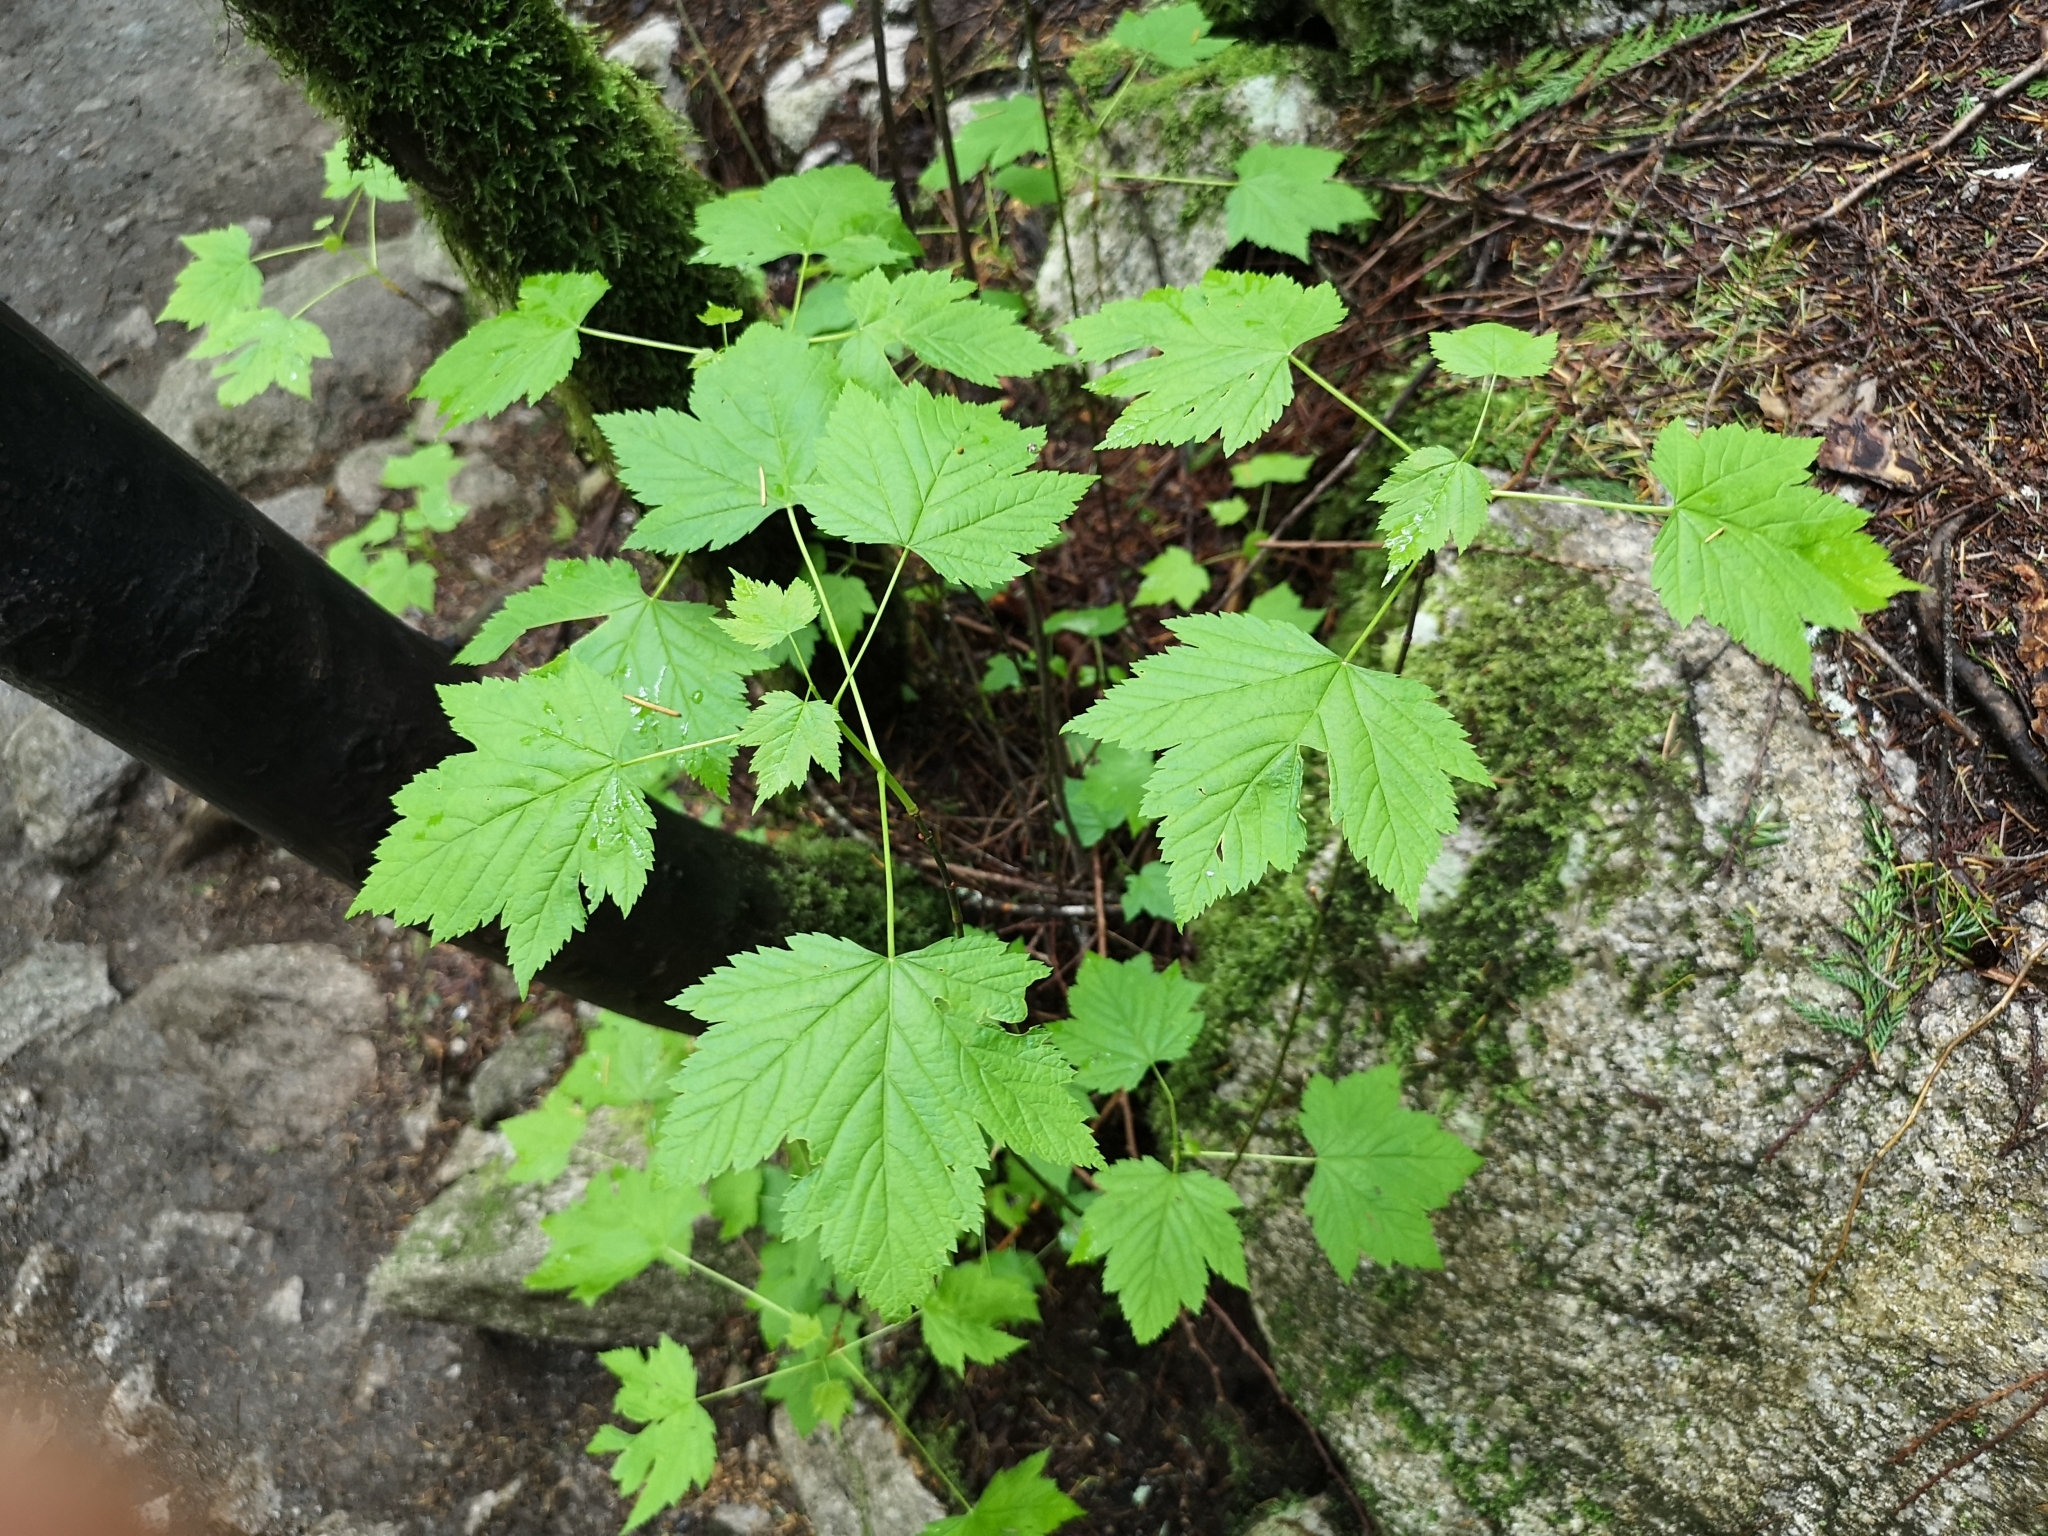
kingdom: Plantae
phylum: Tracheophyta
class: Magnoliopsida
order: Sapindales
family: Sapindaceae
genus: Acer
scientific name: Acer glabrum
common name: Rocky mountain maple
